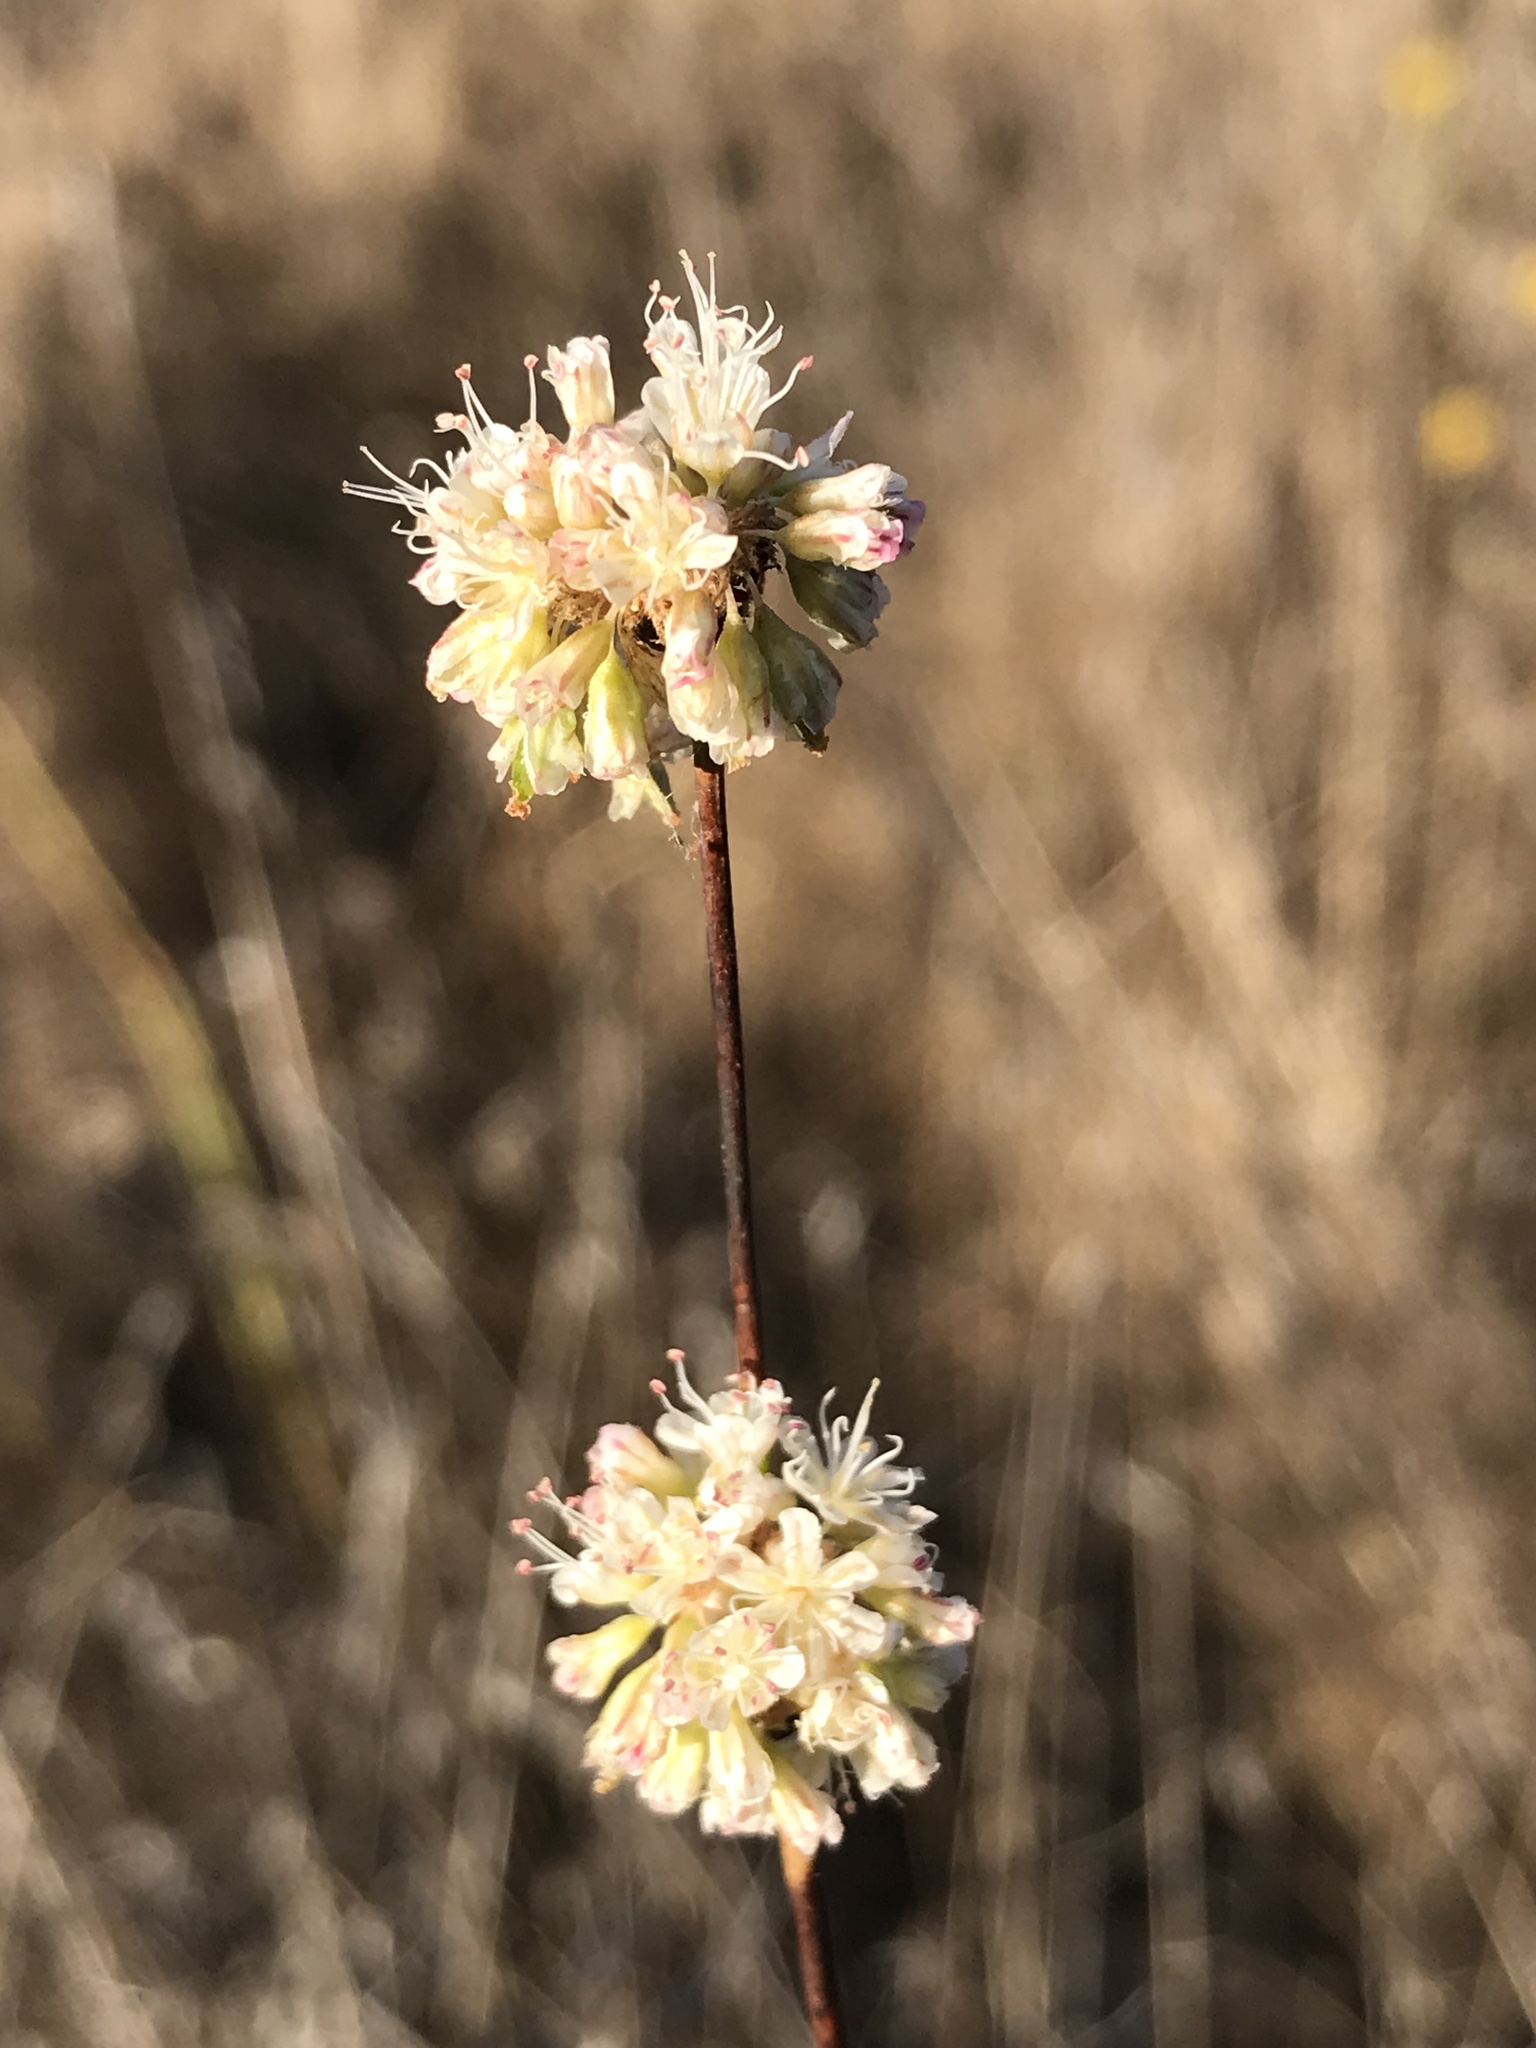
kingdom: Plantae
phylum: Tracheophyta
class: Magnoliopsida
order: Caryophyllales
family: Polygonaceae
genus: Eriogonum
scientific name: Eriogonum nudum
